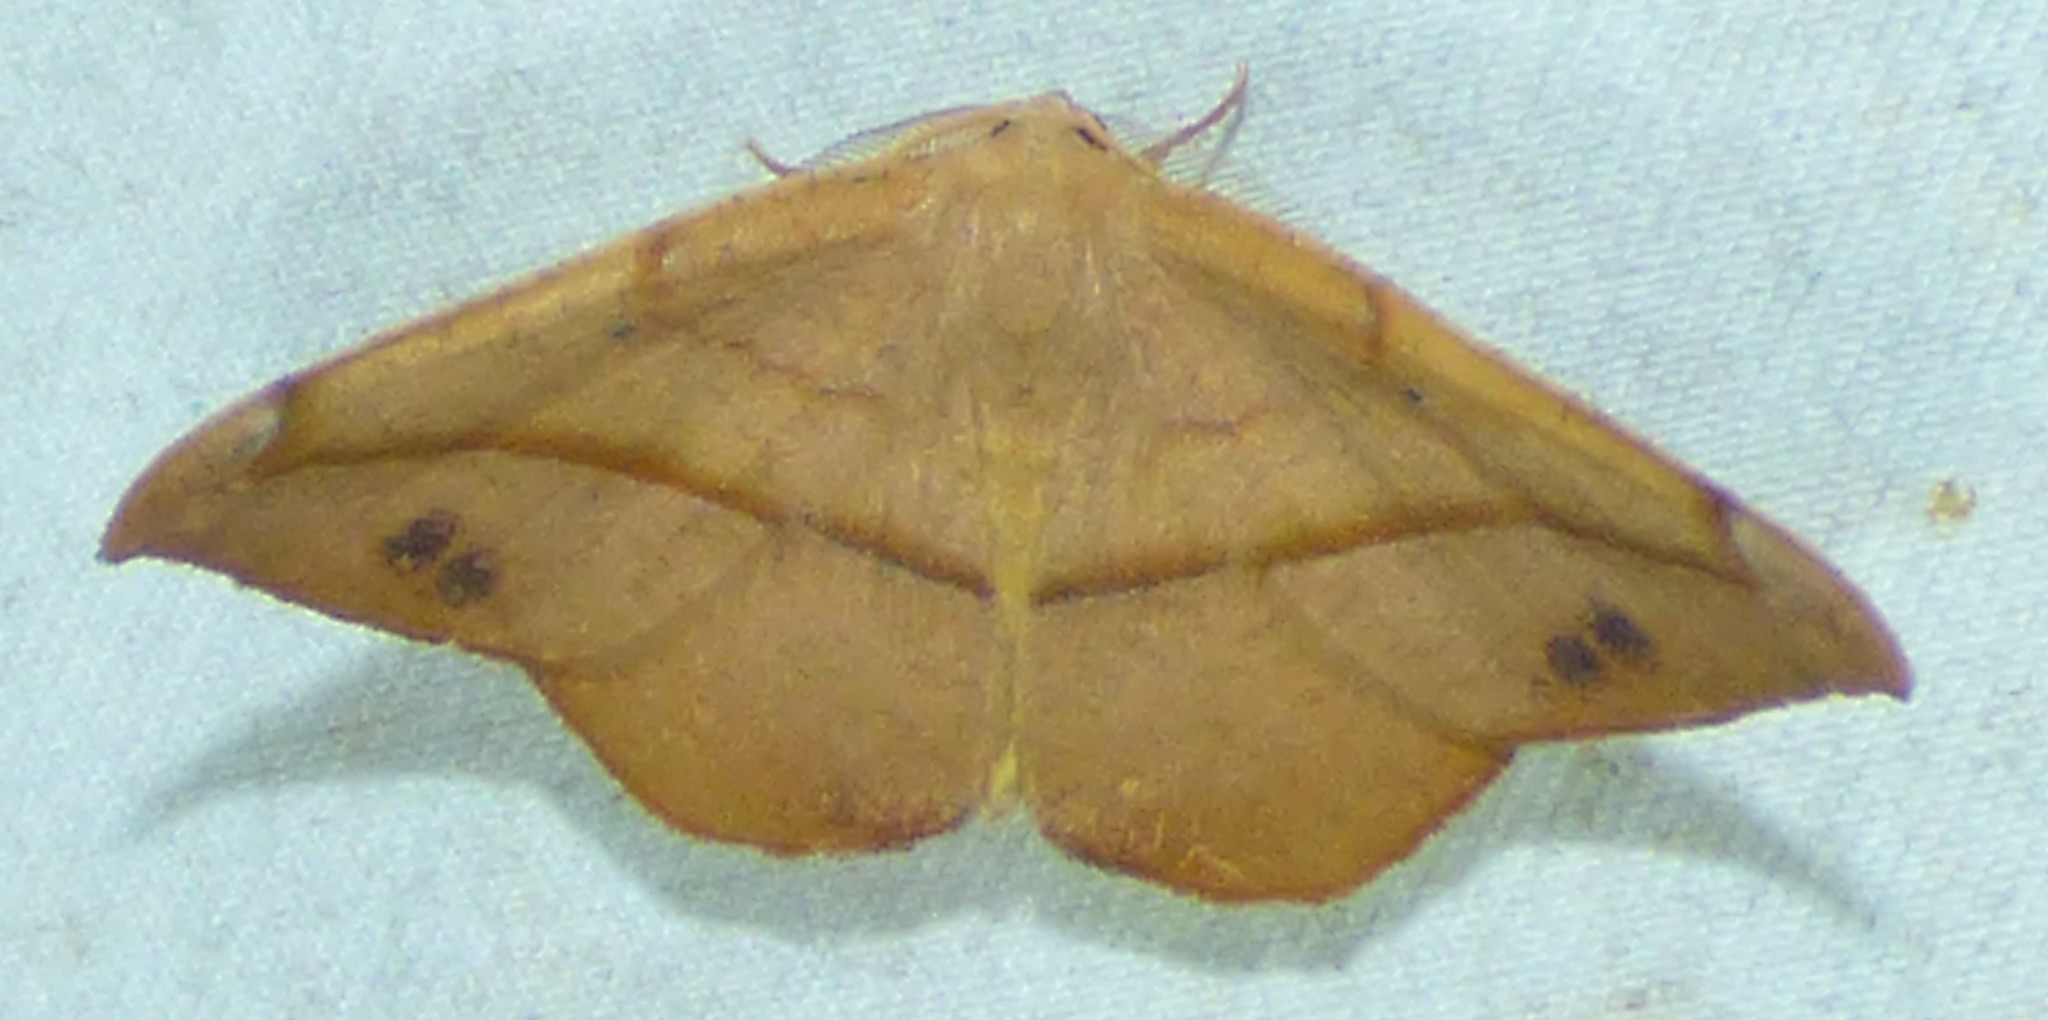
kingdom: Animalia
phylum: Arthropoda
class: Insecta
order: Lepidoptera
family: Geometridae
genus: Patalene
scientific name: Patalene olyzonaria
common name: Juniper geometer moth
